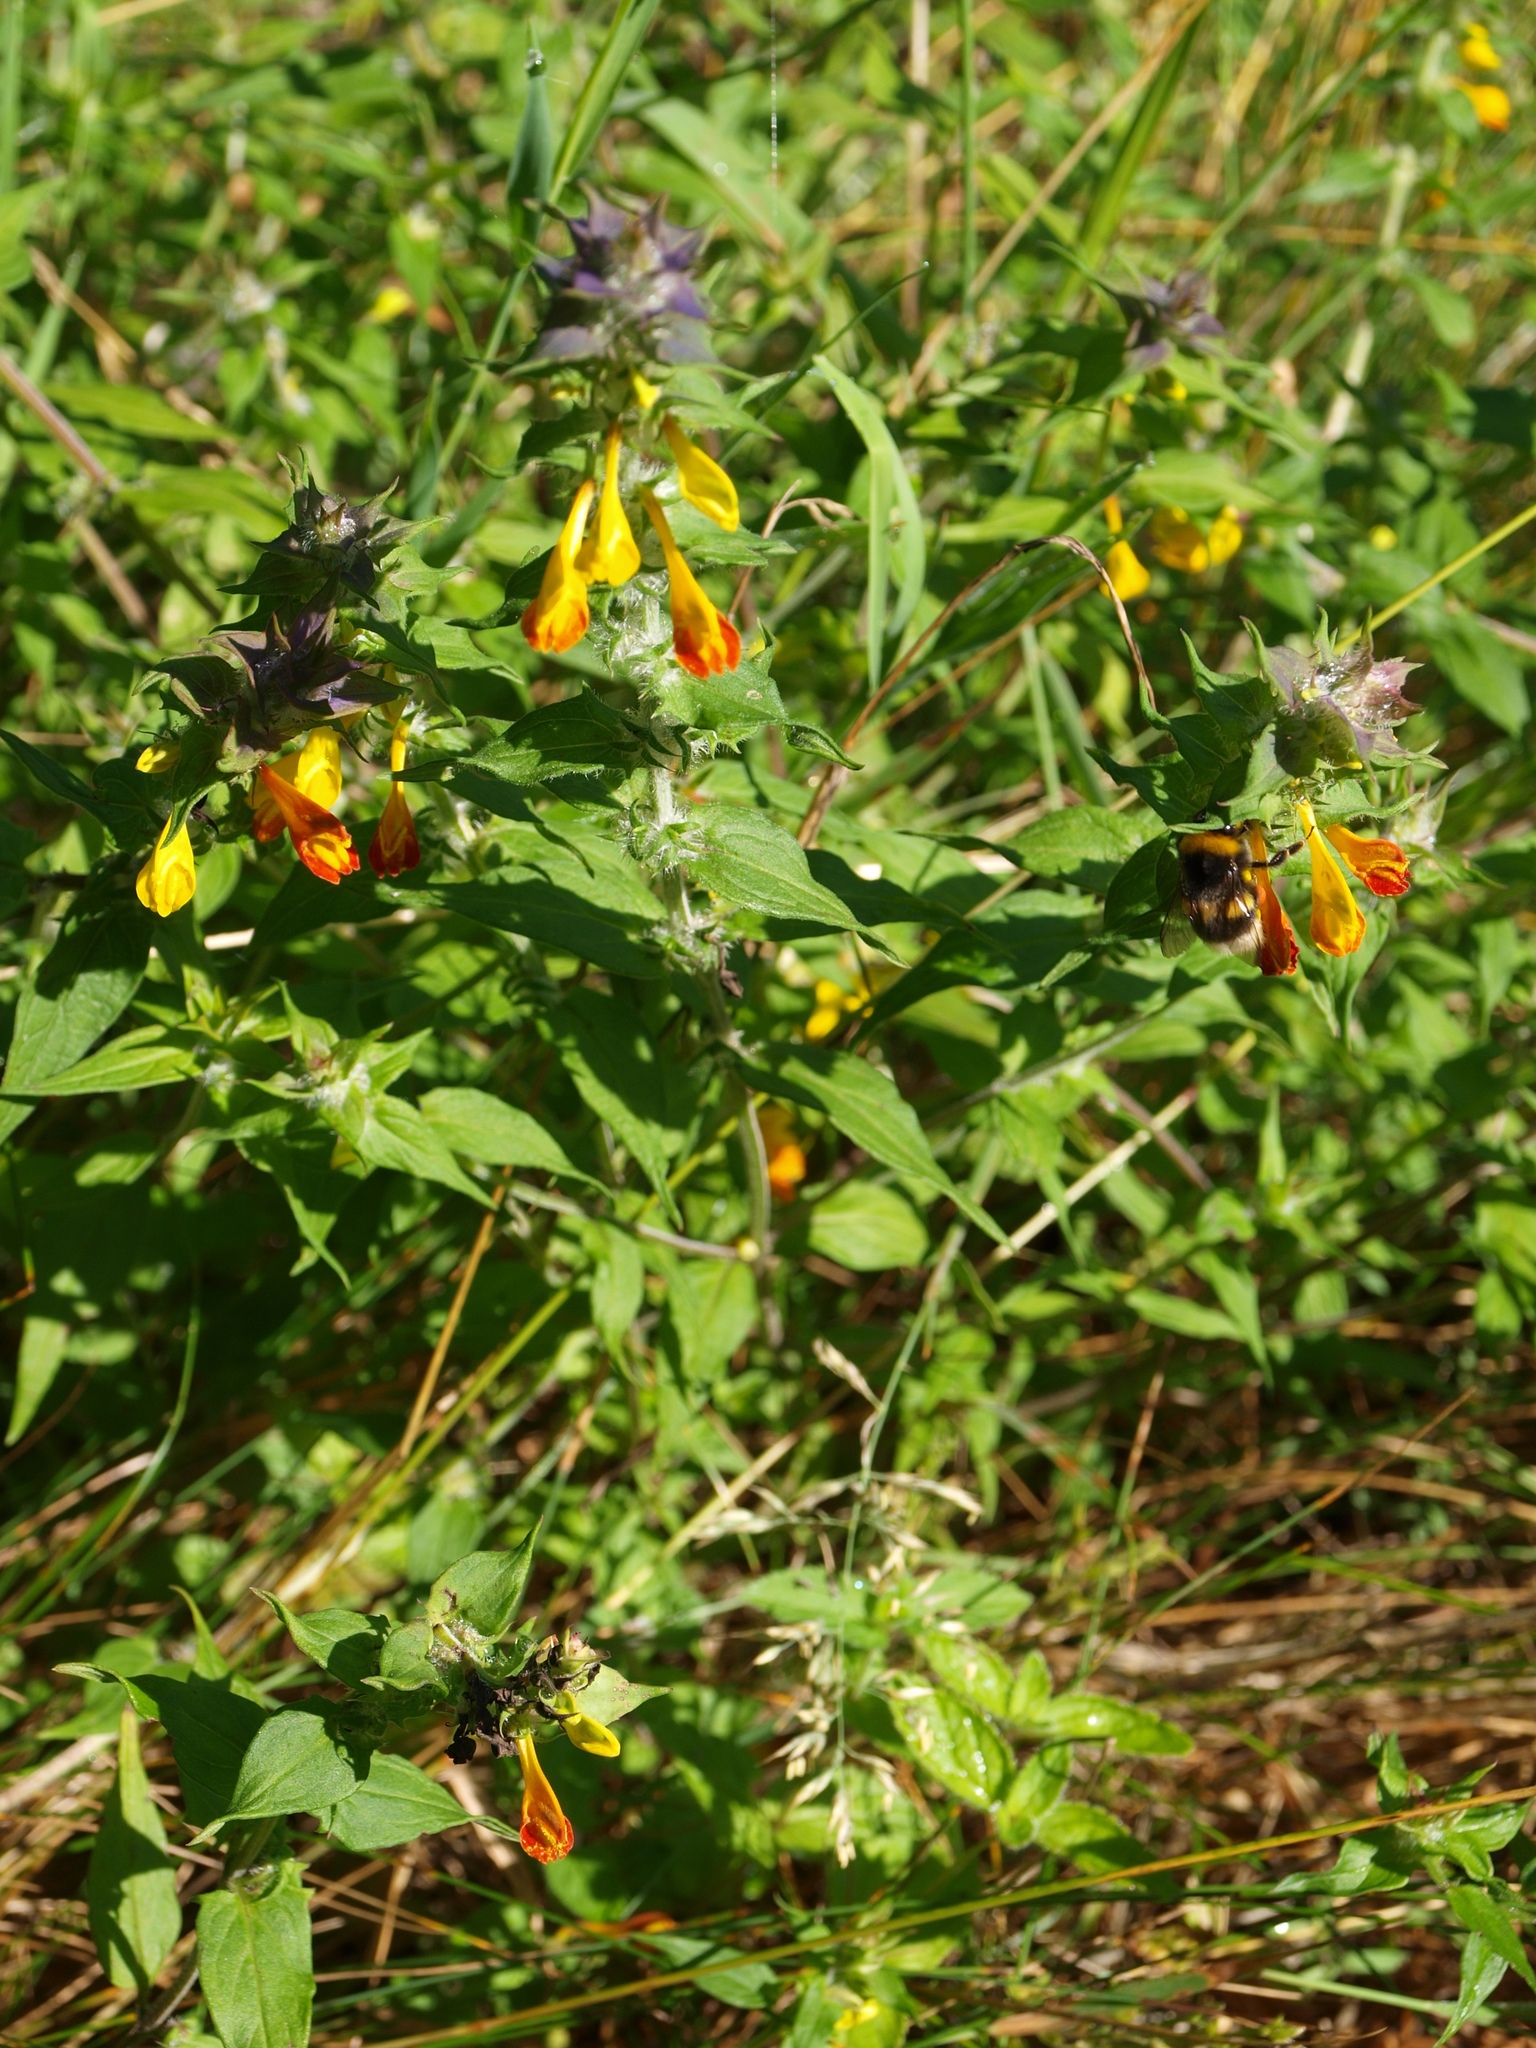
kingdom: Plantae
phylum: Tracheophyta
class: Magnoliopsida
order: Lamiales
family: Orobanchaceae
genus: Melampyrum
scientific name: Melampyrum nemorosum
